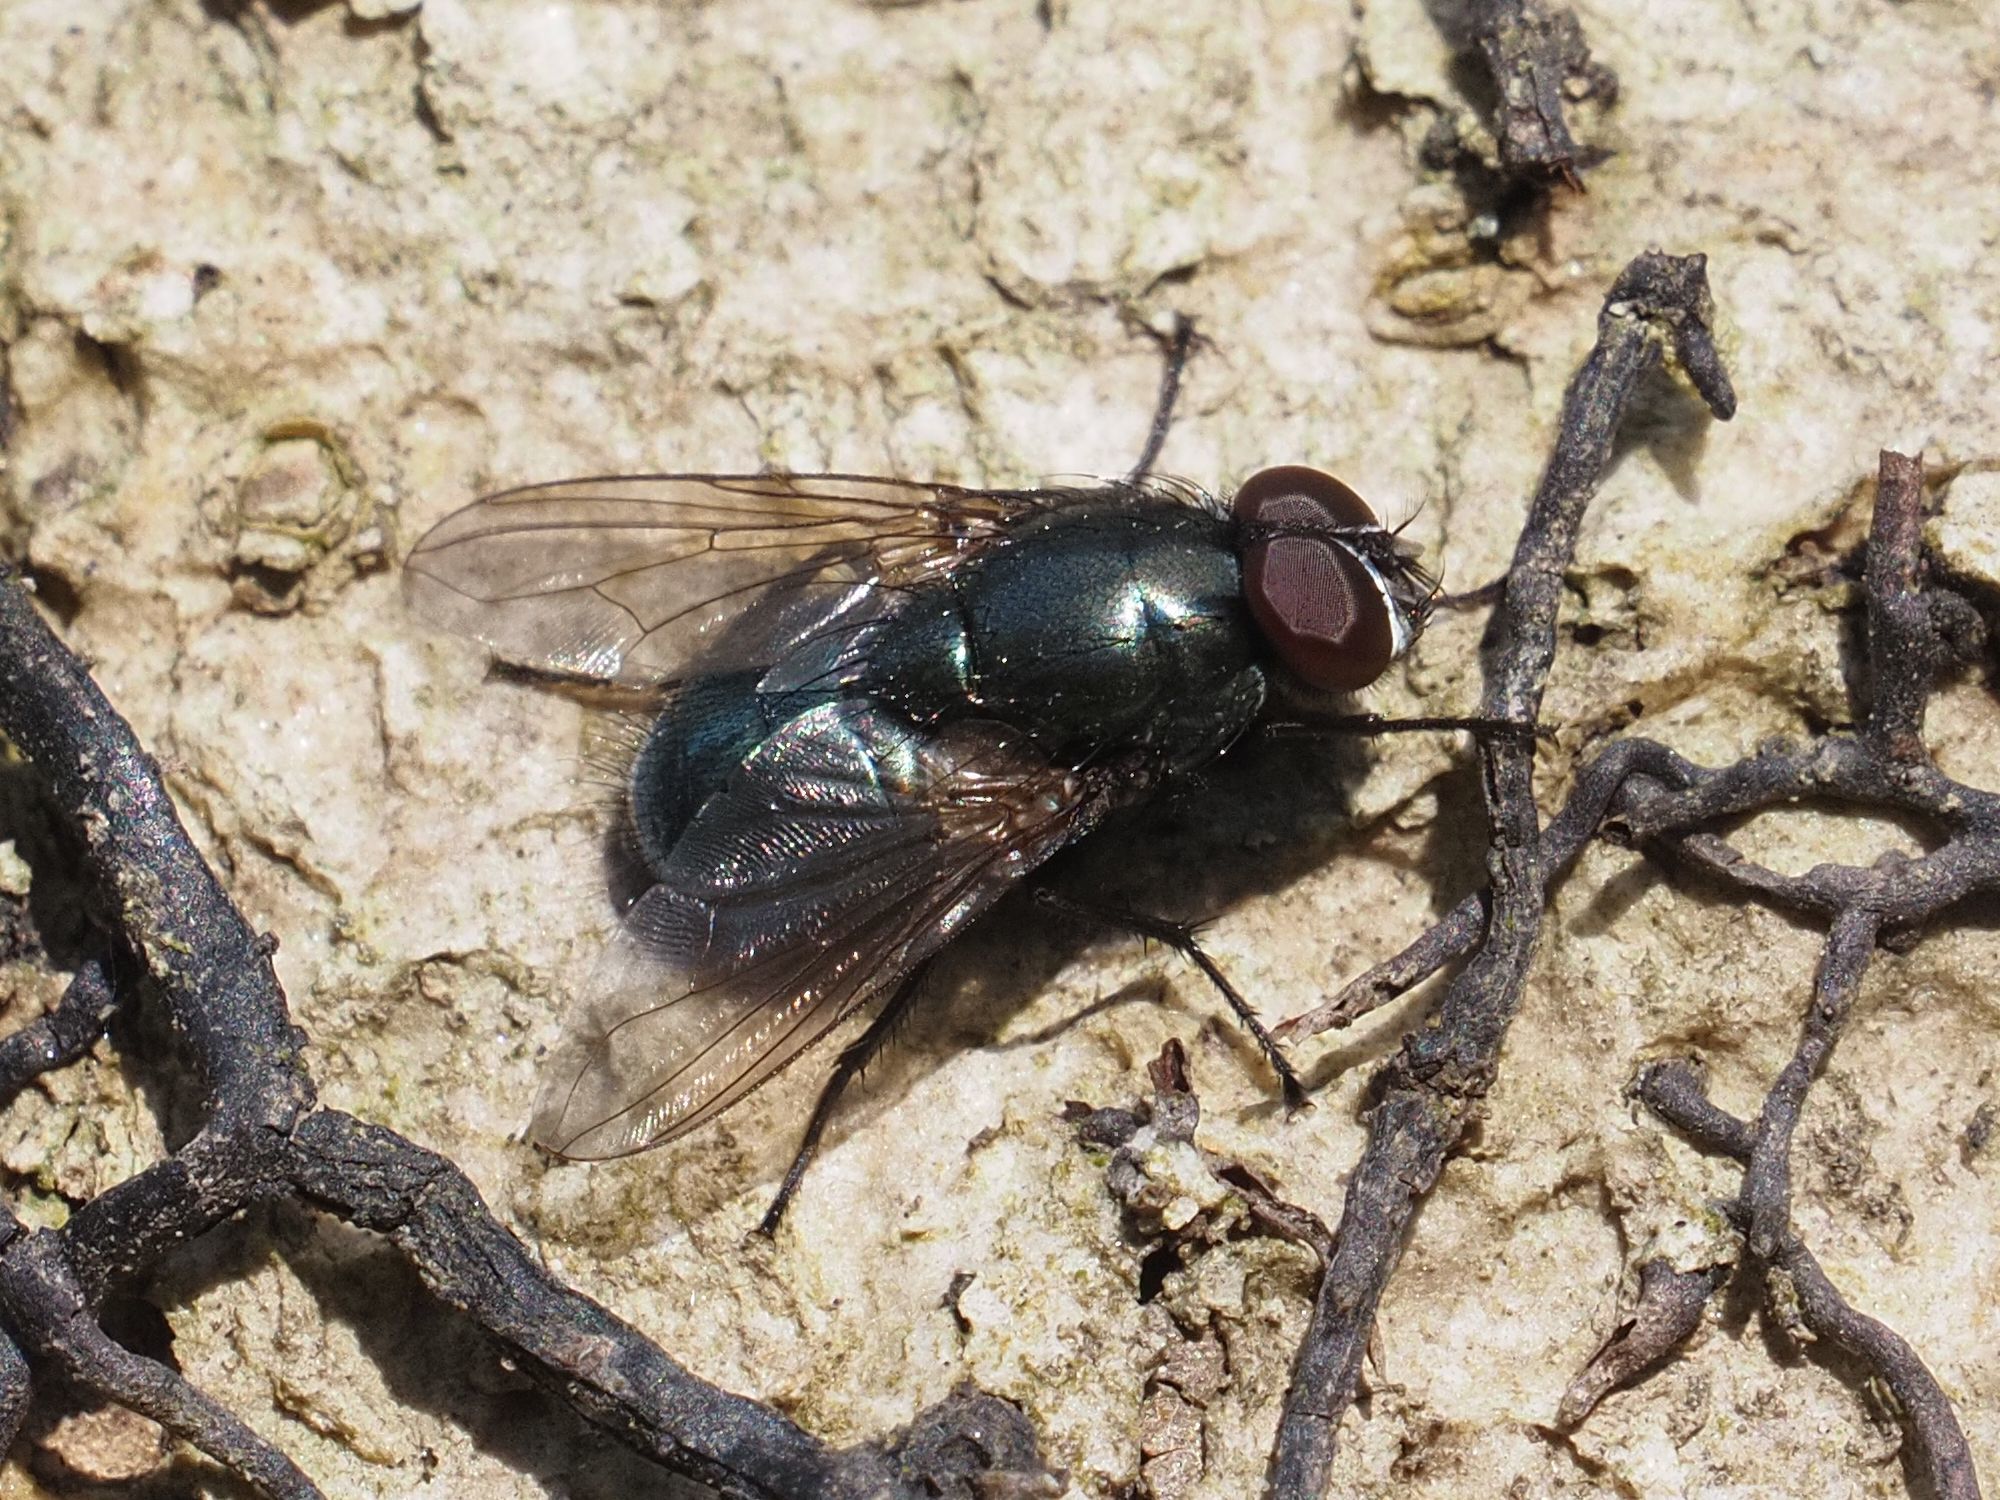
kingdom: Animalia
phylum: Arthropoda
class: Insecta
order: Diptera
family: Muscidae
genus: Eudasyphora
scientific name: Eudasyphora cyanicolor
